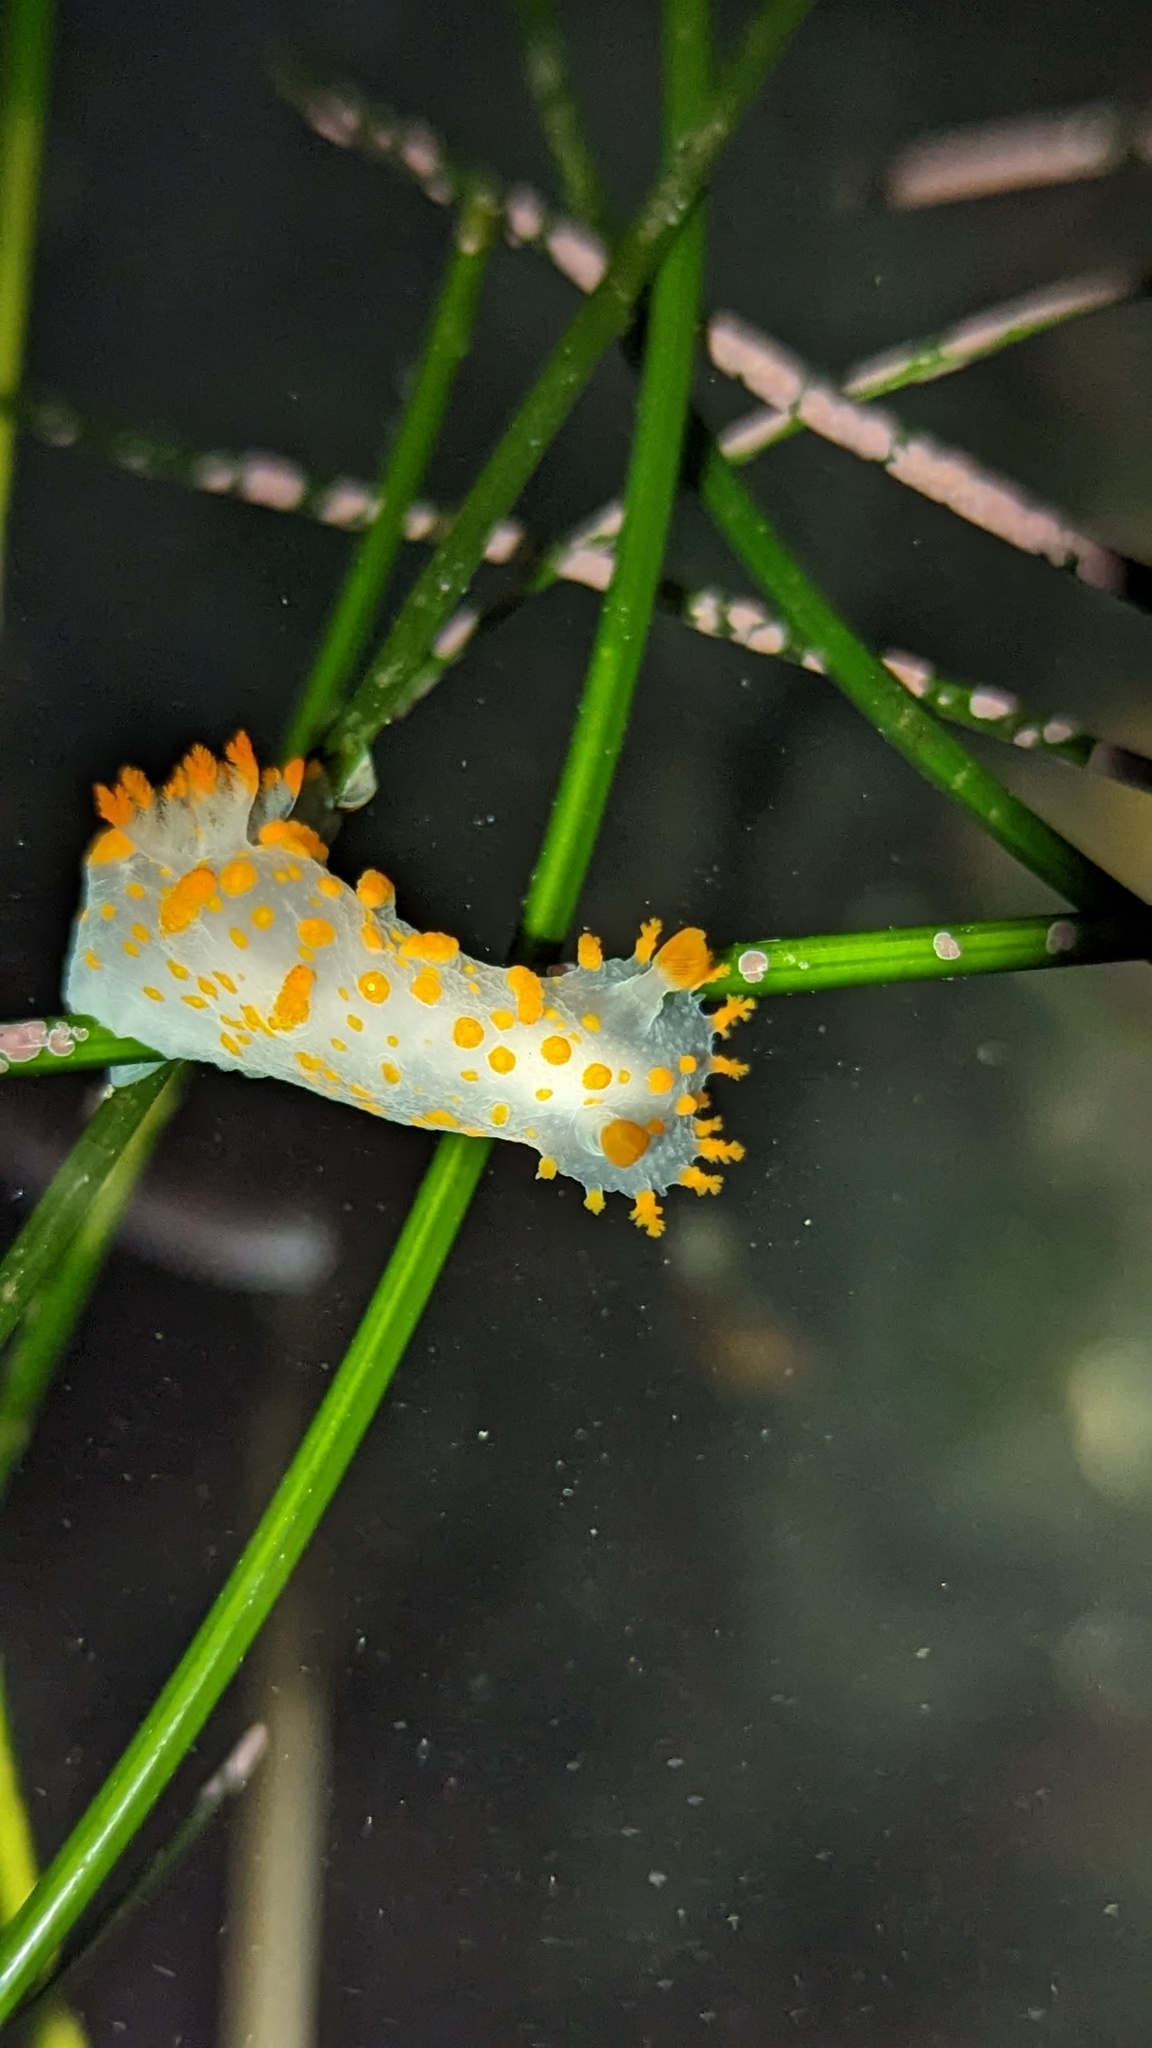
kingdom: Animalia
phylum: Mollusca
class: Gastropoda
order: Nudibranchia
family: Polyceridae
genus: Triopha
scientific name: Triopha catalinae
